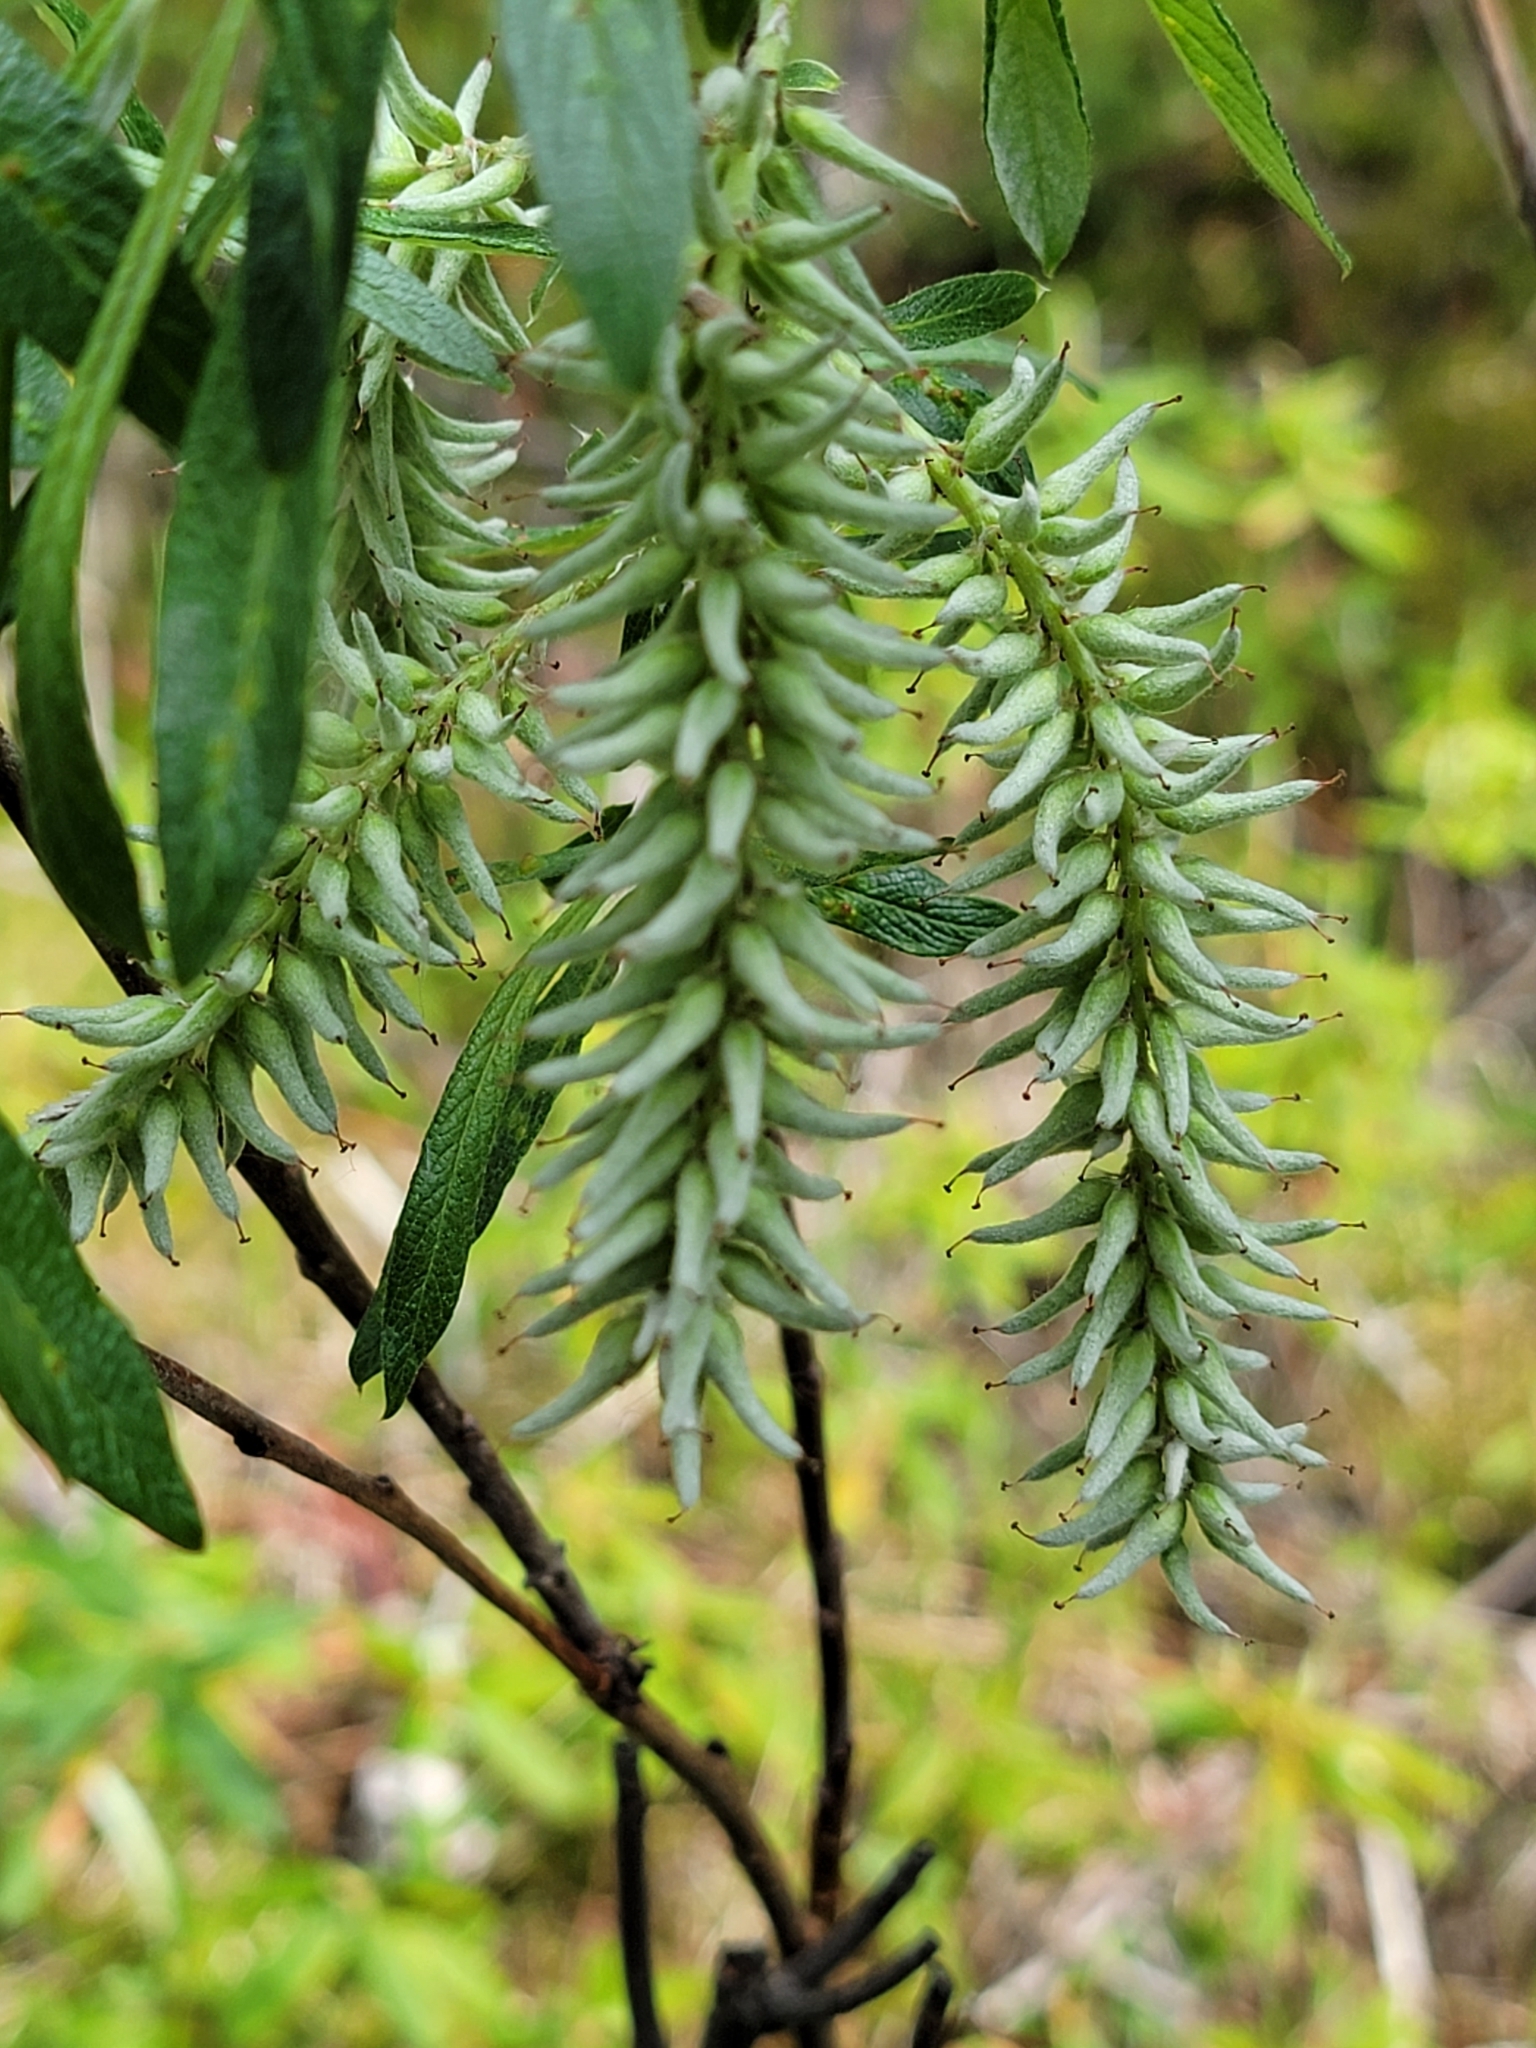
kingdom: Plantae
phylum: Tracheophyta
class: Magnoliopsida
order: Malpighiales
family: Salicaceae
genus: Salix
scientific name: Salix candida
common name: Hoary willow
